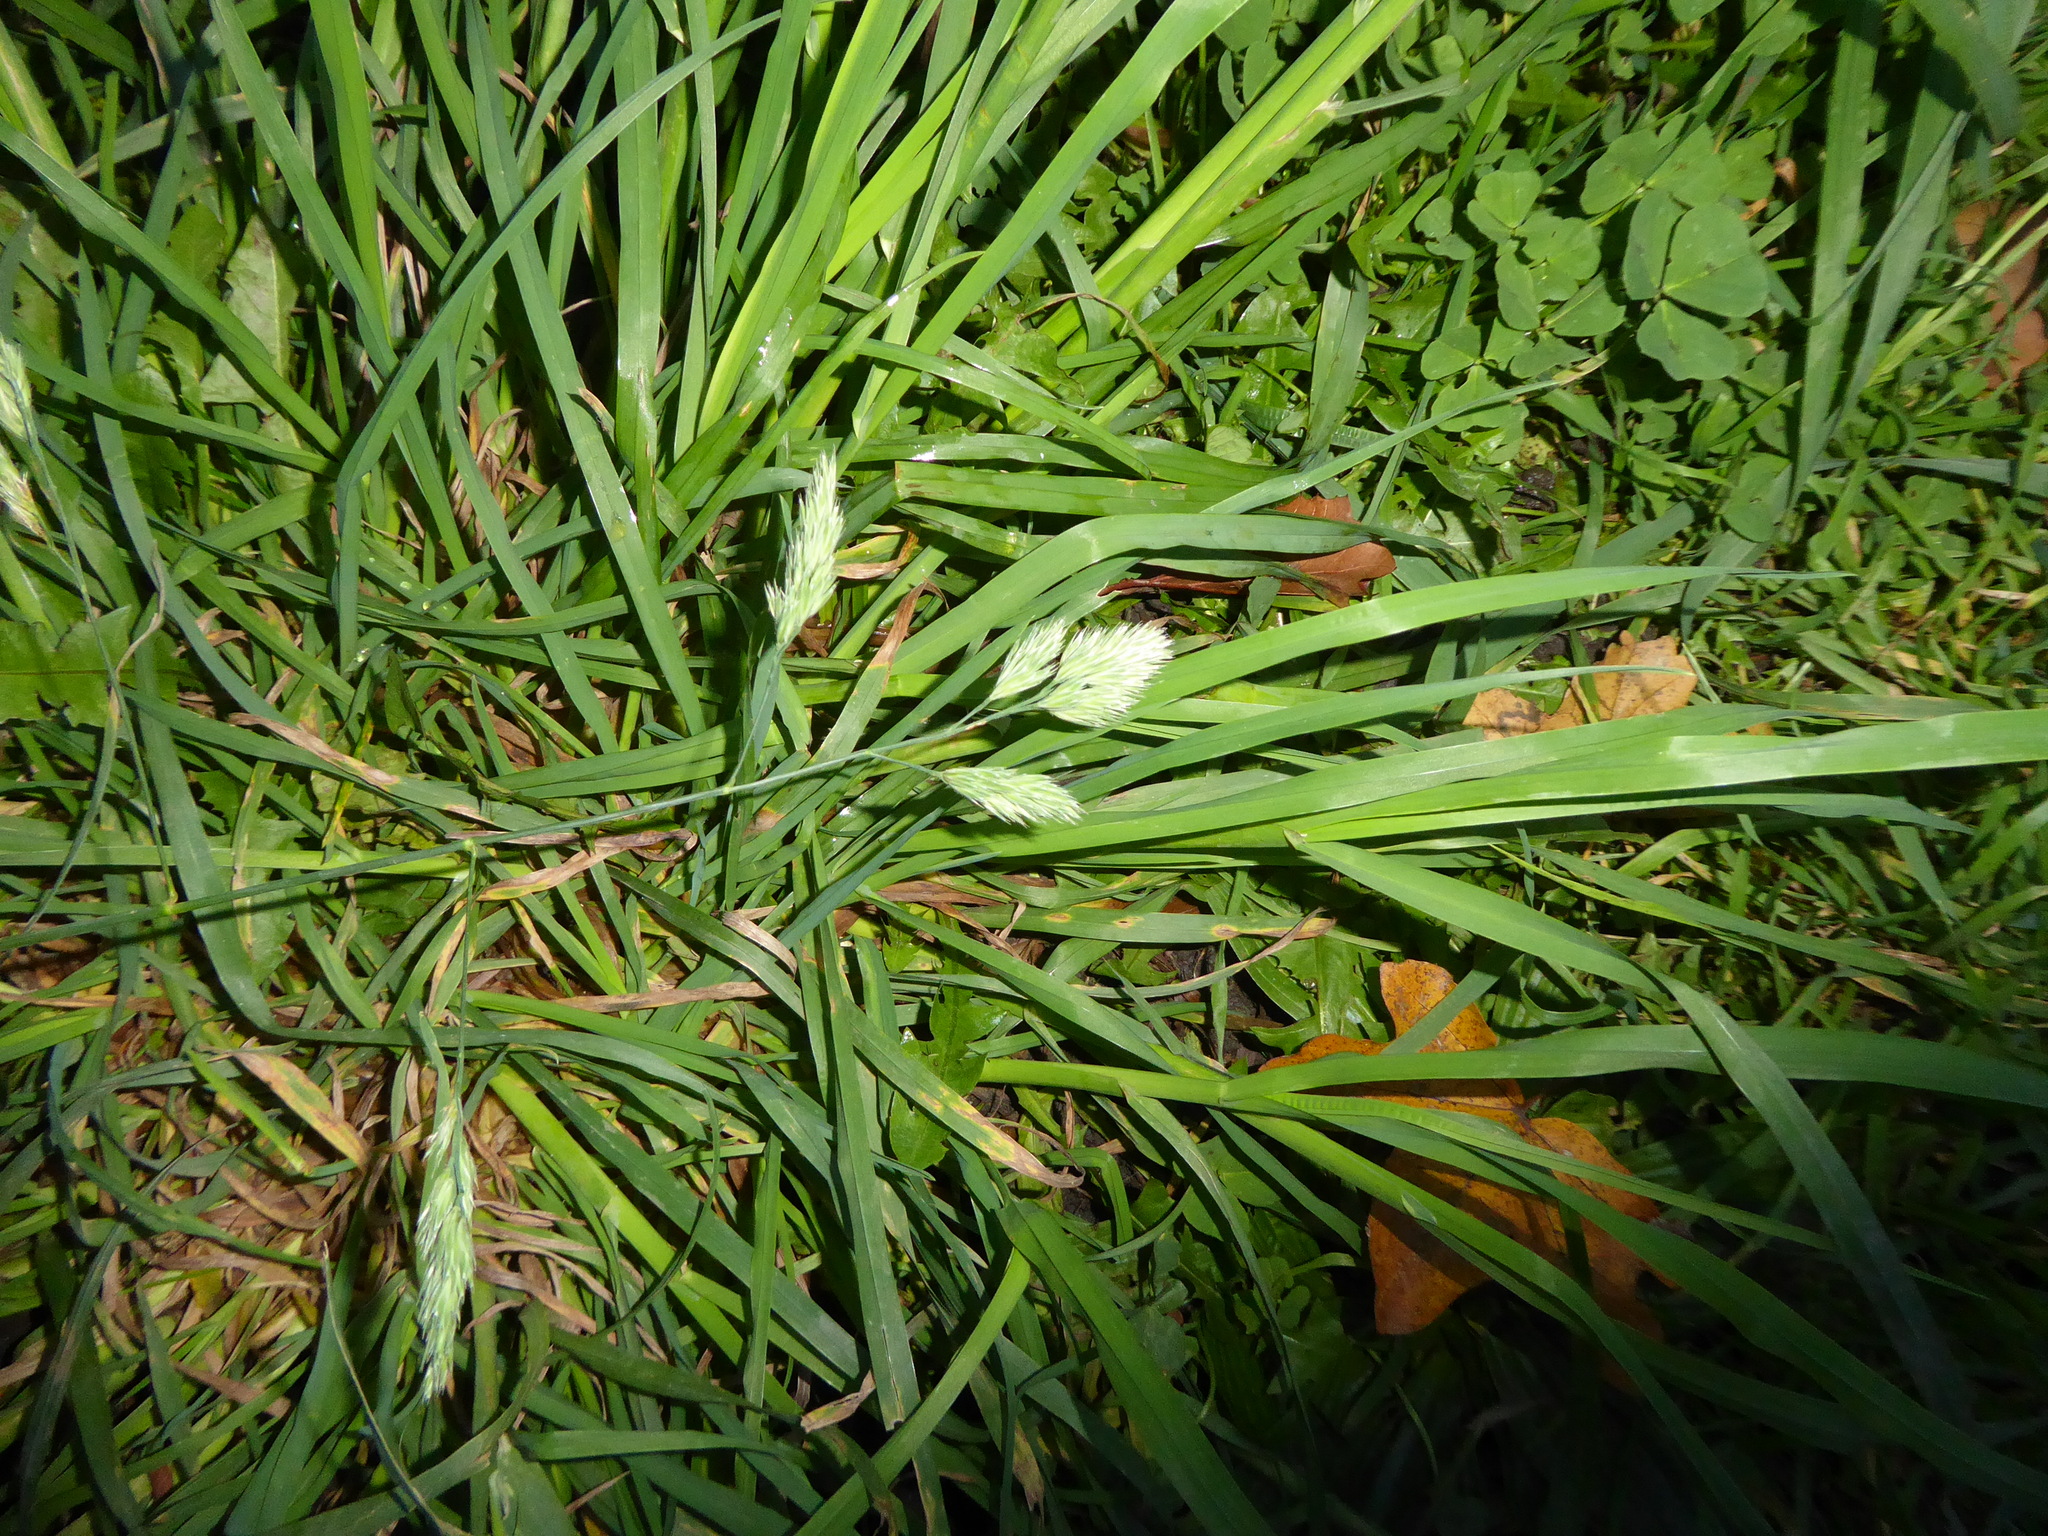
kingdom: Plantae
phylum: Tracheophyta
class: Liliopsida
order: Poales
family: Poaceae
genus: Dactylis
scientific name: Dactylis glomerata
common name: Orchardgrass
